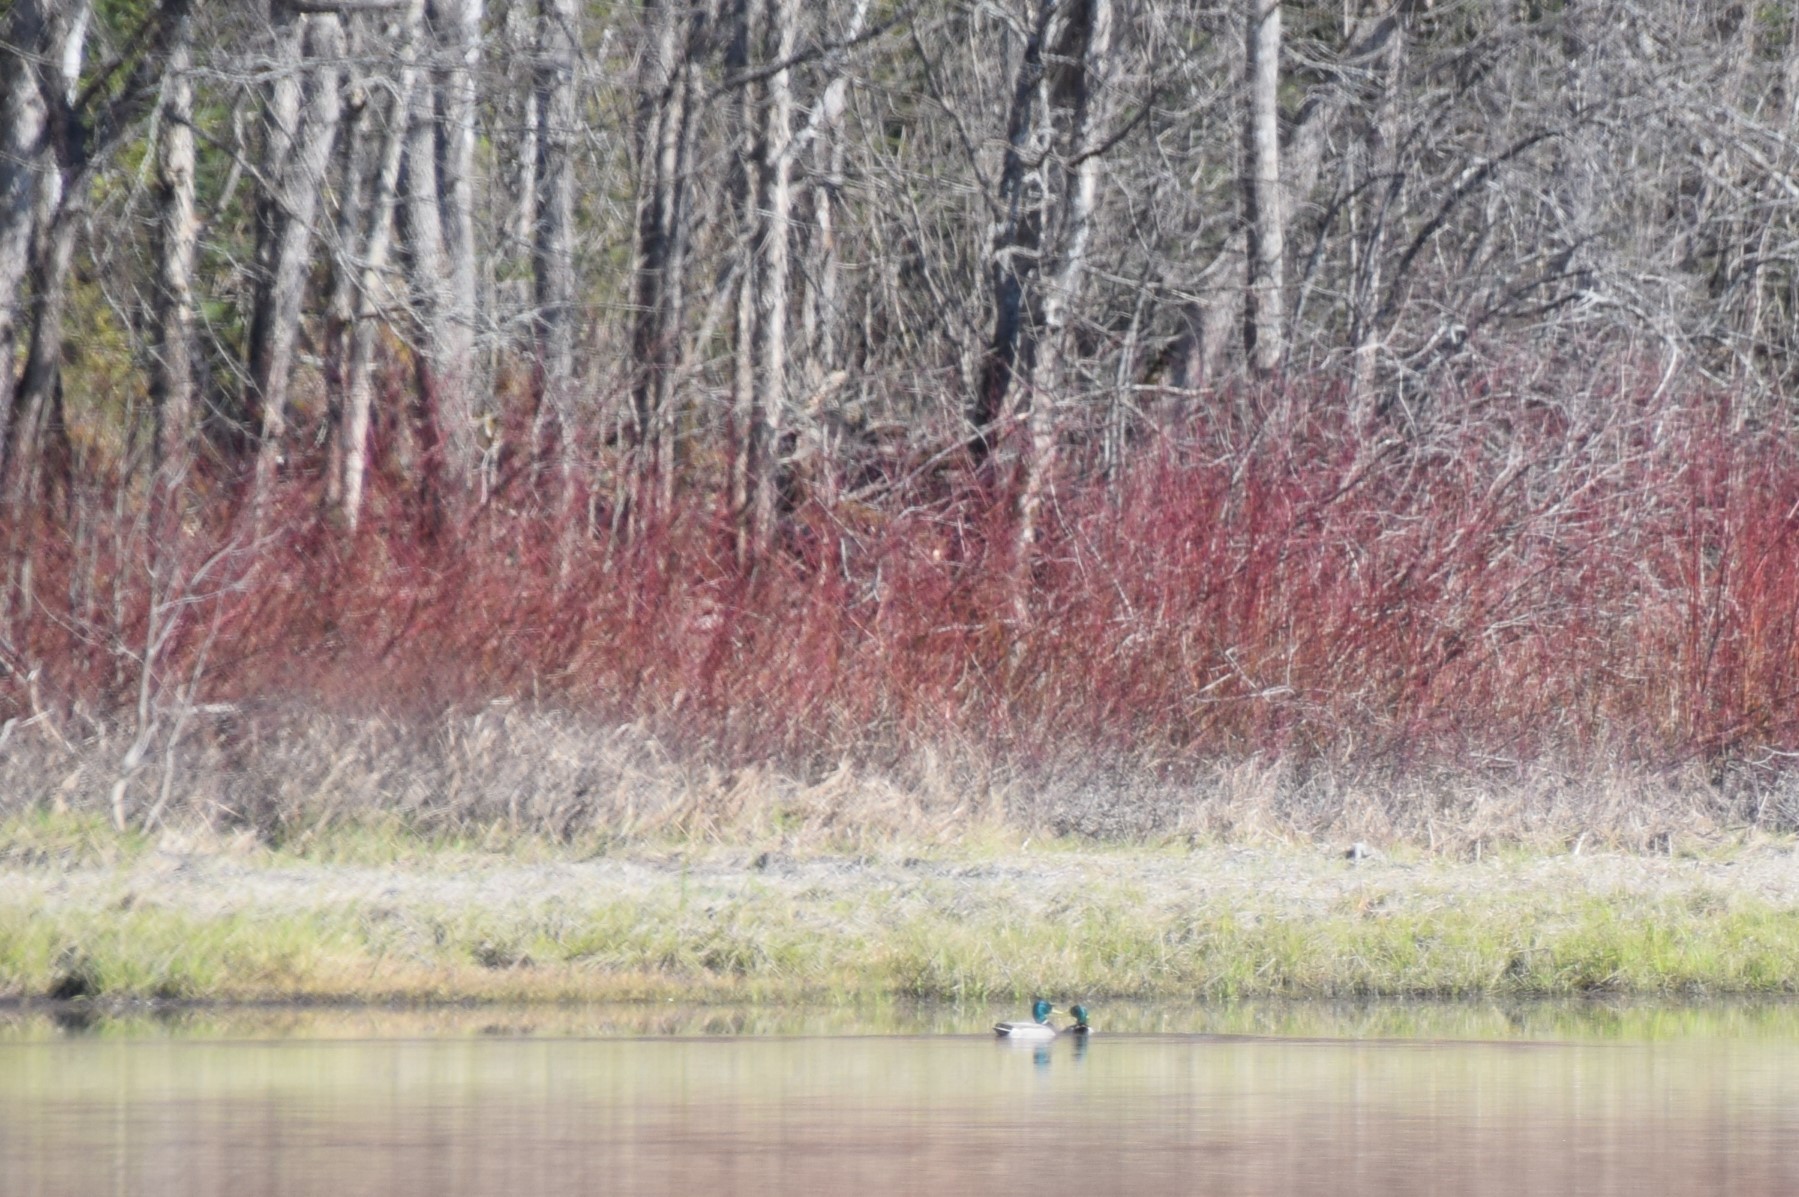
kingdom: Animalia
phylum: Chordata
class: Aves
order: Anseriformes
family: Anatidae
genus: Anas
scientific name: Anas platyrhynchos
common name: Mallard
